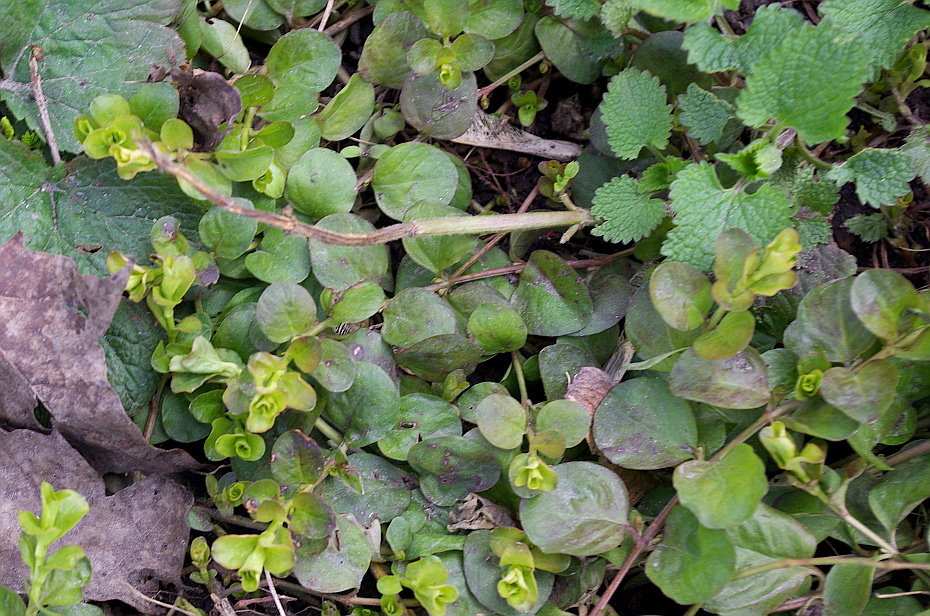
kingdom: Plantae
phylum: Tracheophyta
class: Magnoliopsida
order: Ericales
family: Primulaceae
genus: Lysimachia
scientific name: Lysimachia nummularia
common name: Moneywort
